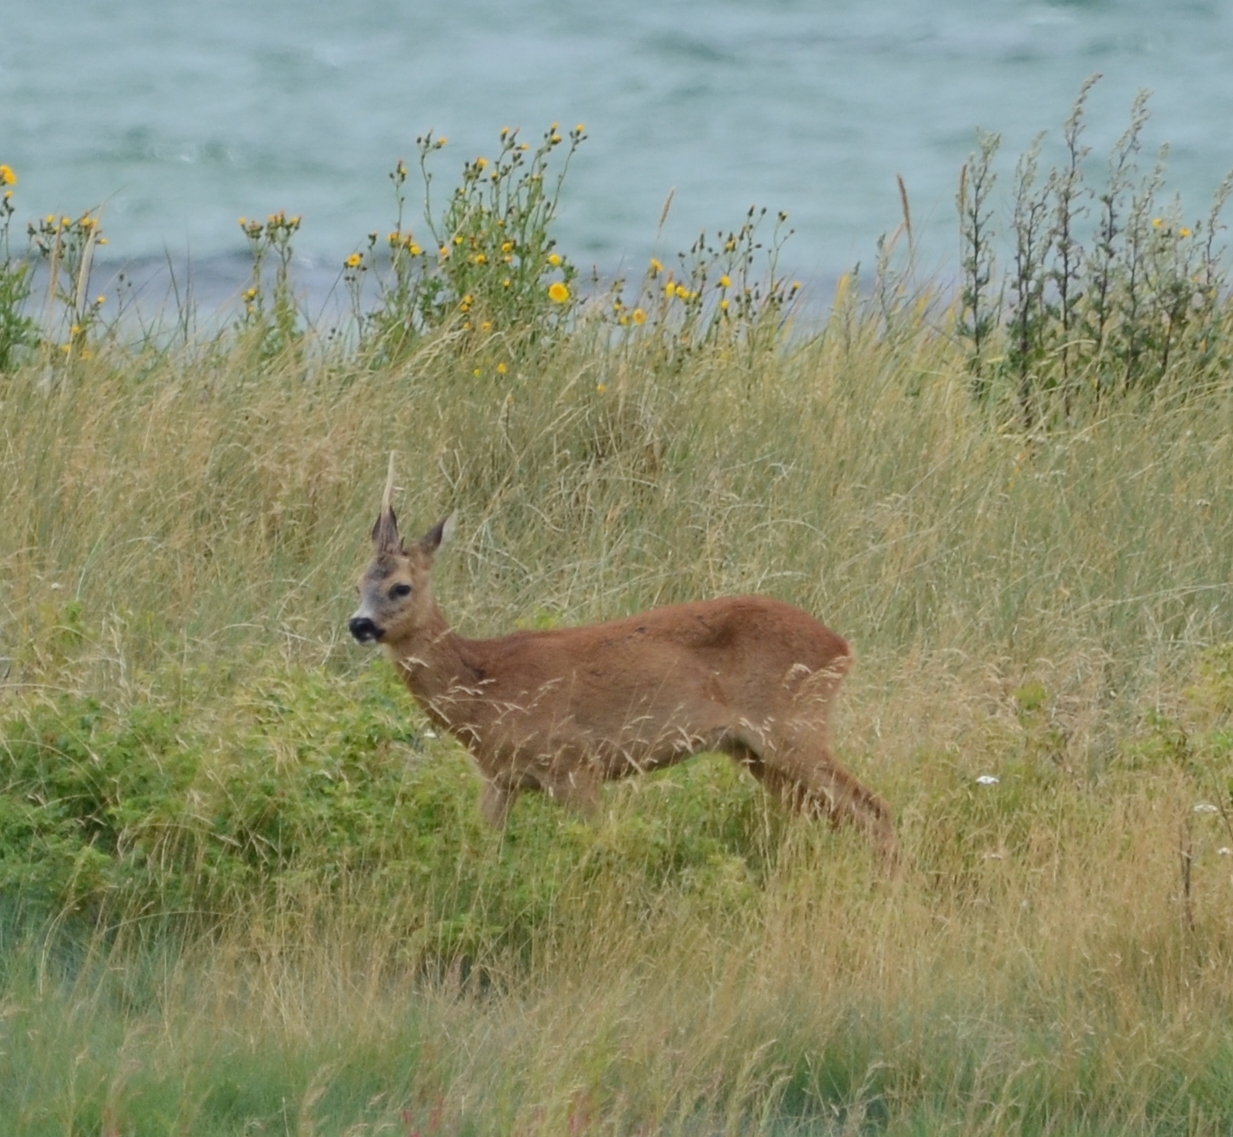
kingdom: Animalia
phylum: Chordata
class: Mammalia
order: Artiodactyla
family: Cervidae
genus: Capreolus
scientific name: Capreolus capreolus
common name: Western roe deer
